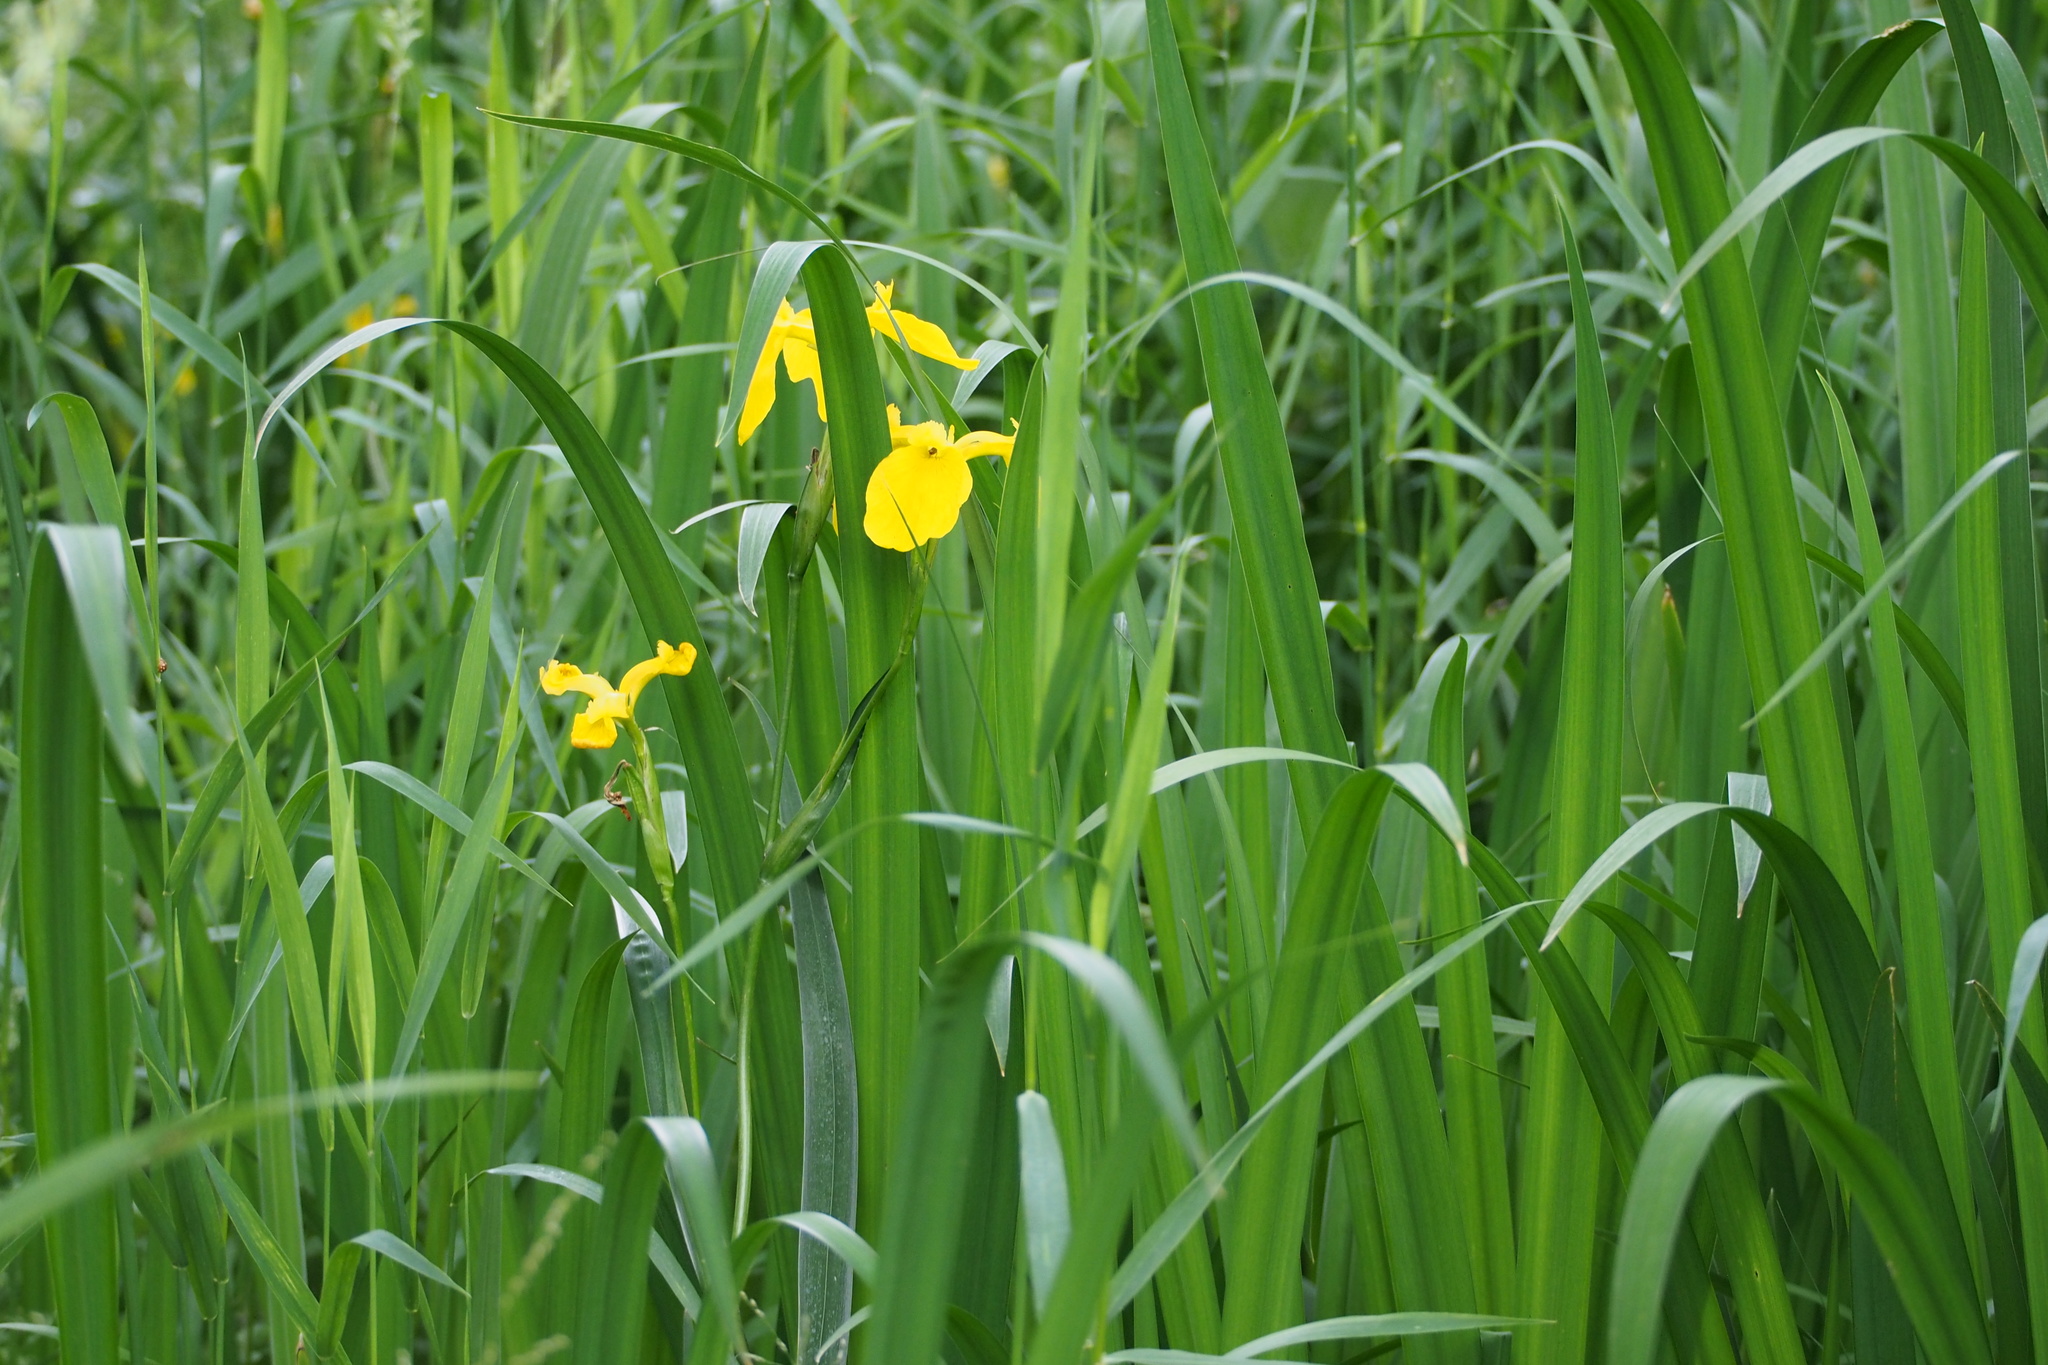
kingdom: Plantae
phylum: Tracheophyta
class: Liliopsida
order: Asparagales
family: Iridaceae
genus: Iris
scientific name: Iris pseudacorus
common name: Yellow flag
